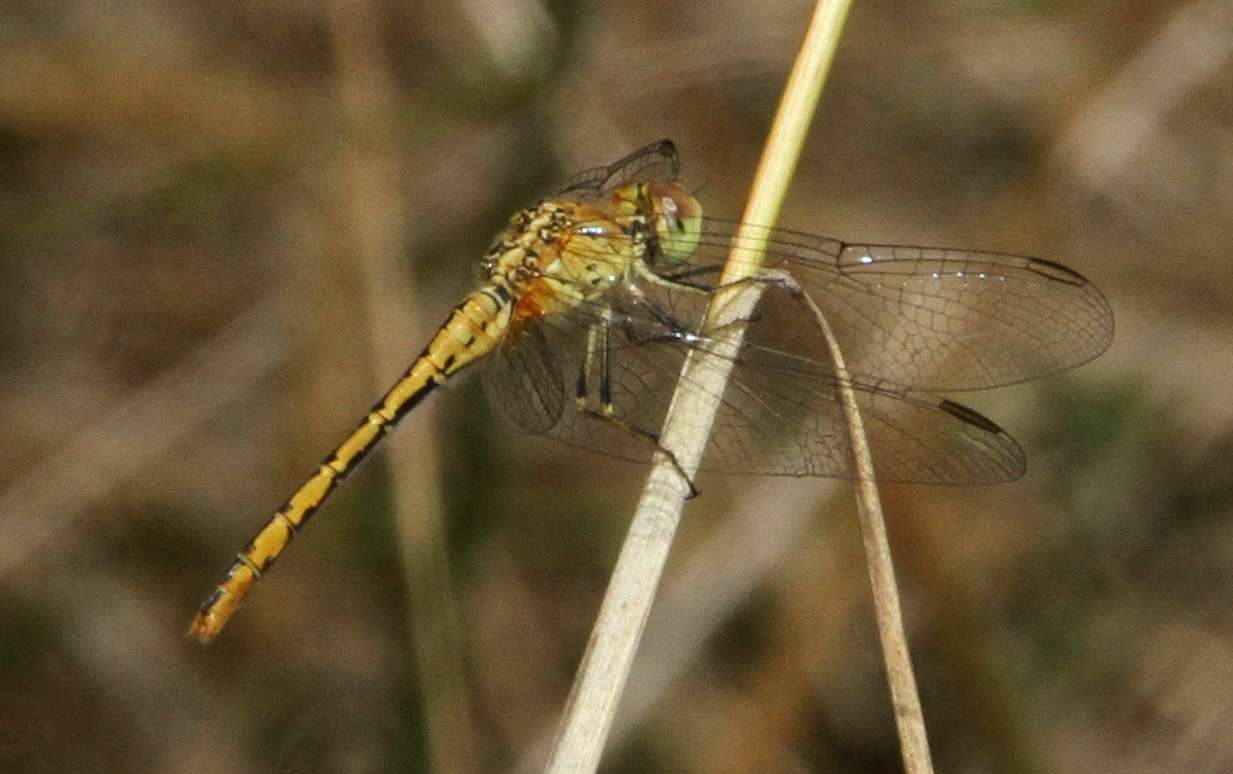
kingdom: Animalia
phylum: Arthropoda
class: Insecta
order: Odonata
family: Libellulidae
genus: Diplacodes
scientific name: Diplacodes bipunctata
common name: Red percher dragonfly
